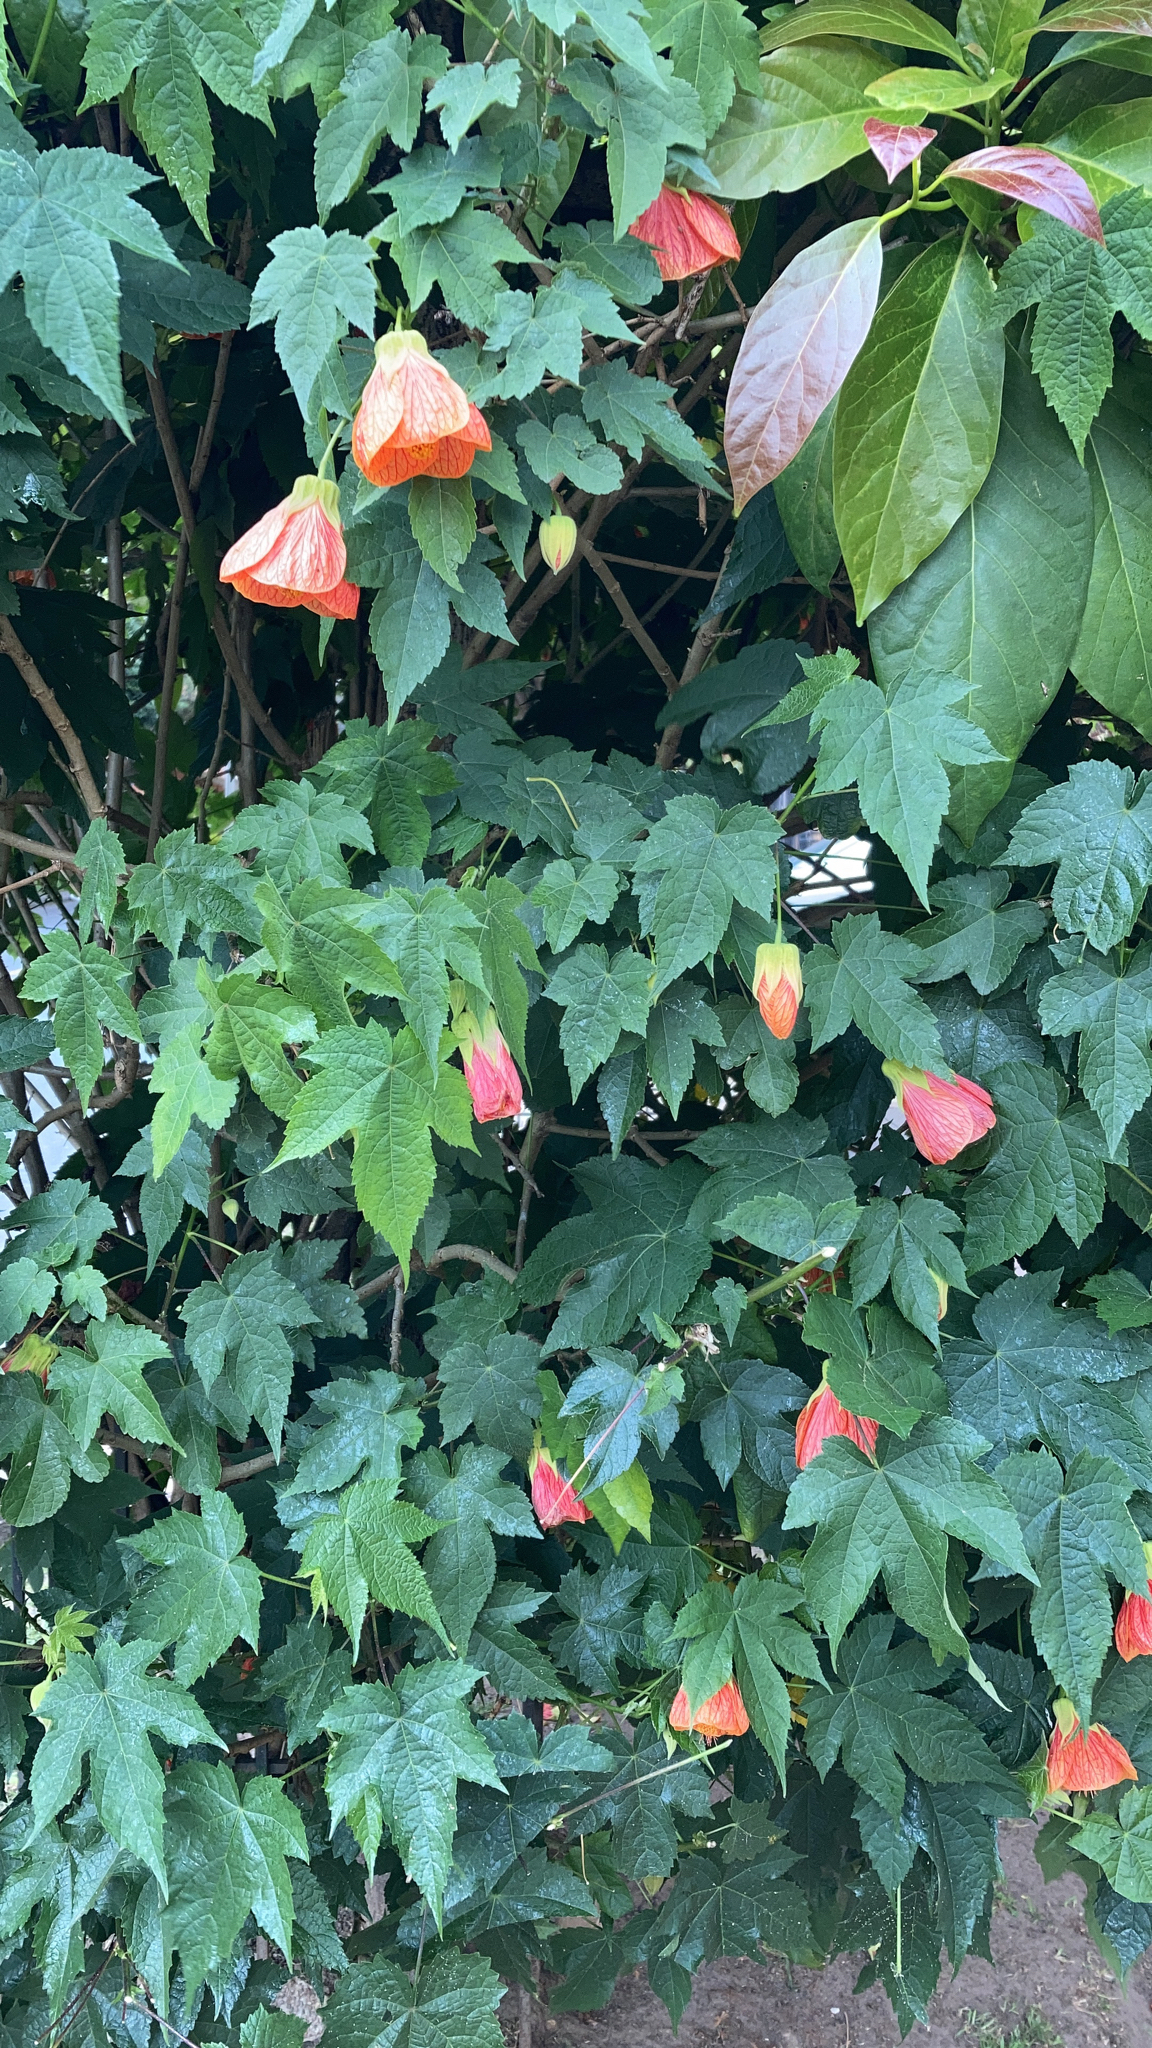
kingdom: Plantae
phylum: Tracheophyta
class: Magnoliopsida
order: Malvales
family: Malvaceae
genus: Callianthe
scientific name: Callianthe picta
